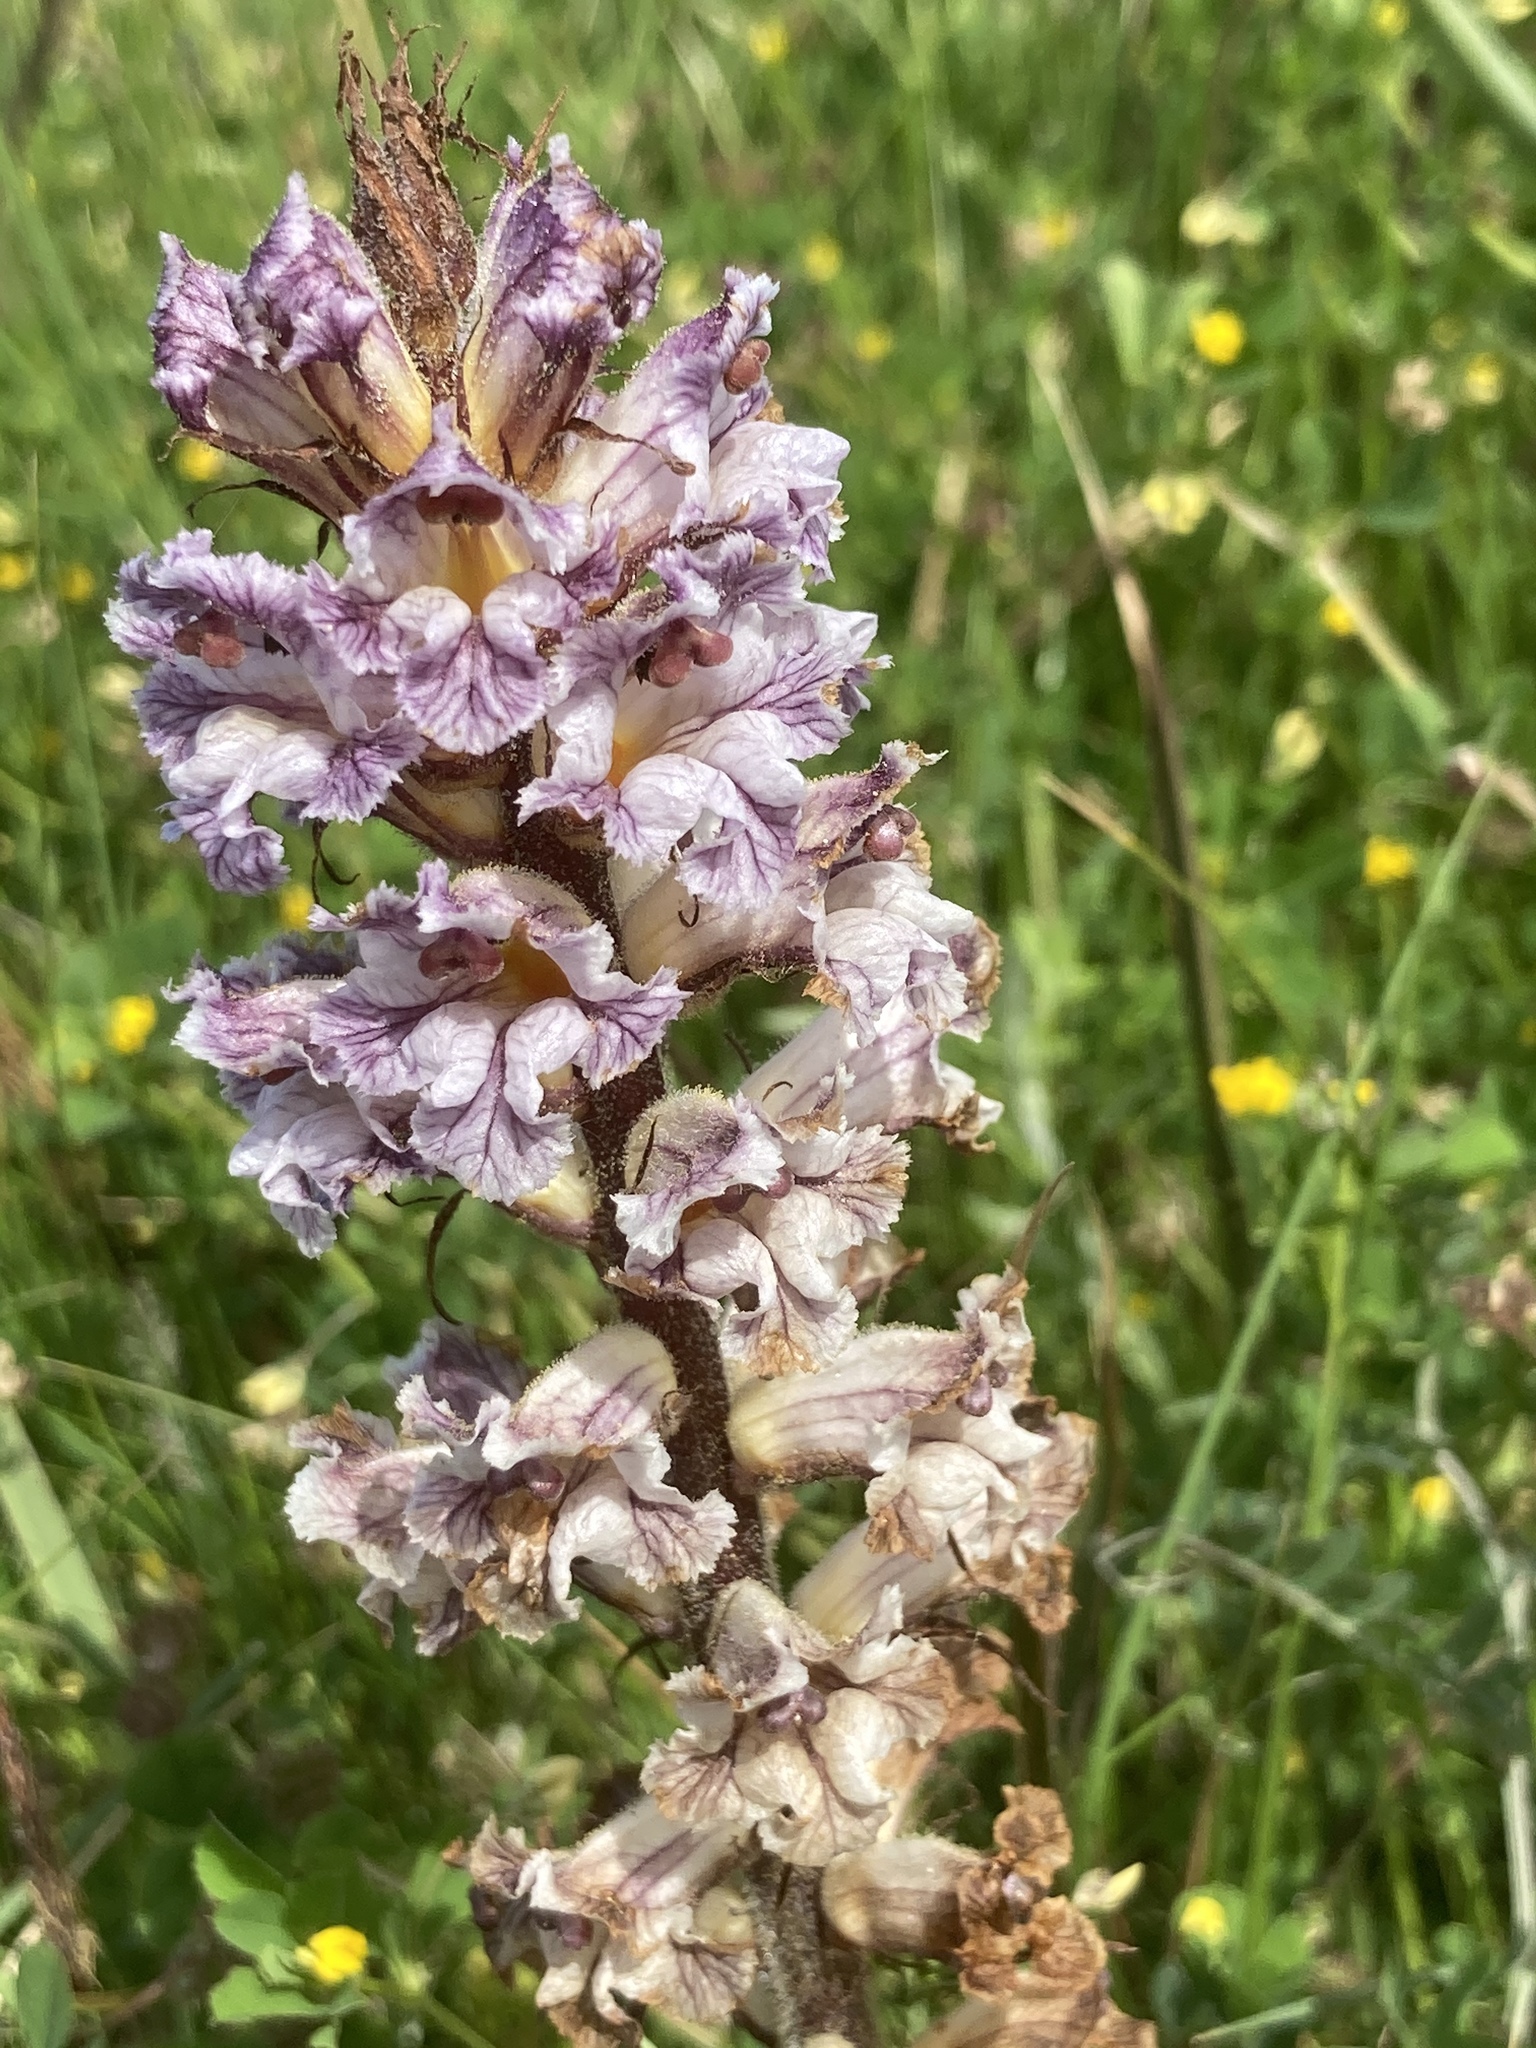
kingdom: Plantae
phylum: Tracheophyta
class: Magnoliopsida
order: Lamiales
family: Orobanchaceae
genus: Orobanche
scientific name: Orobanche crenata
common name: Bean broomrape
